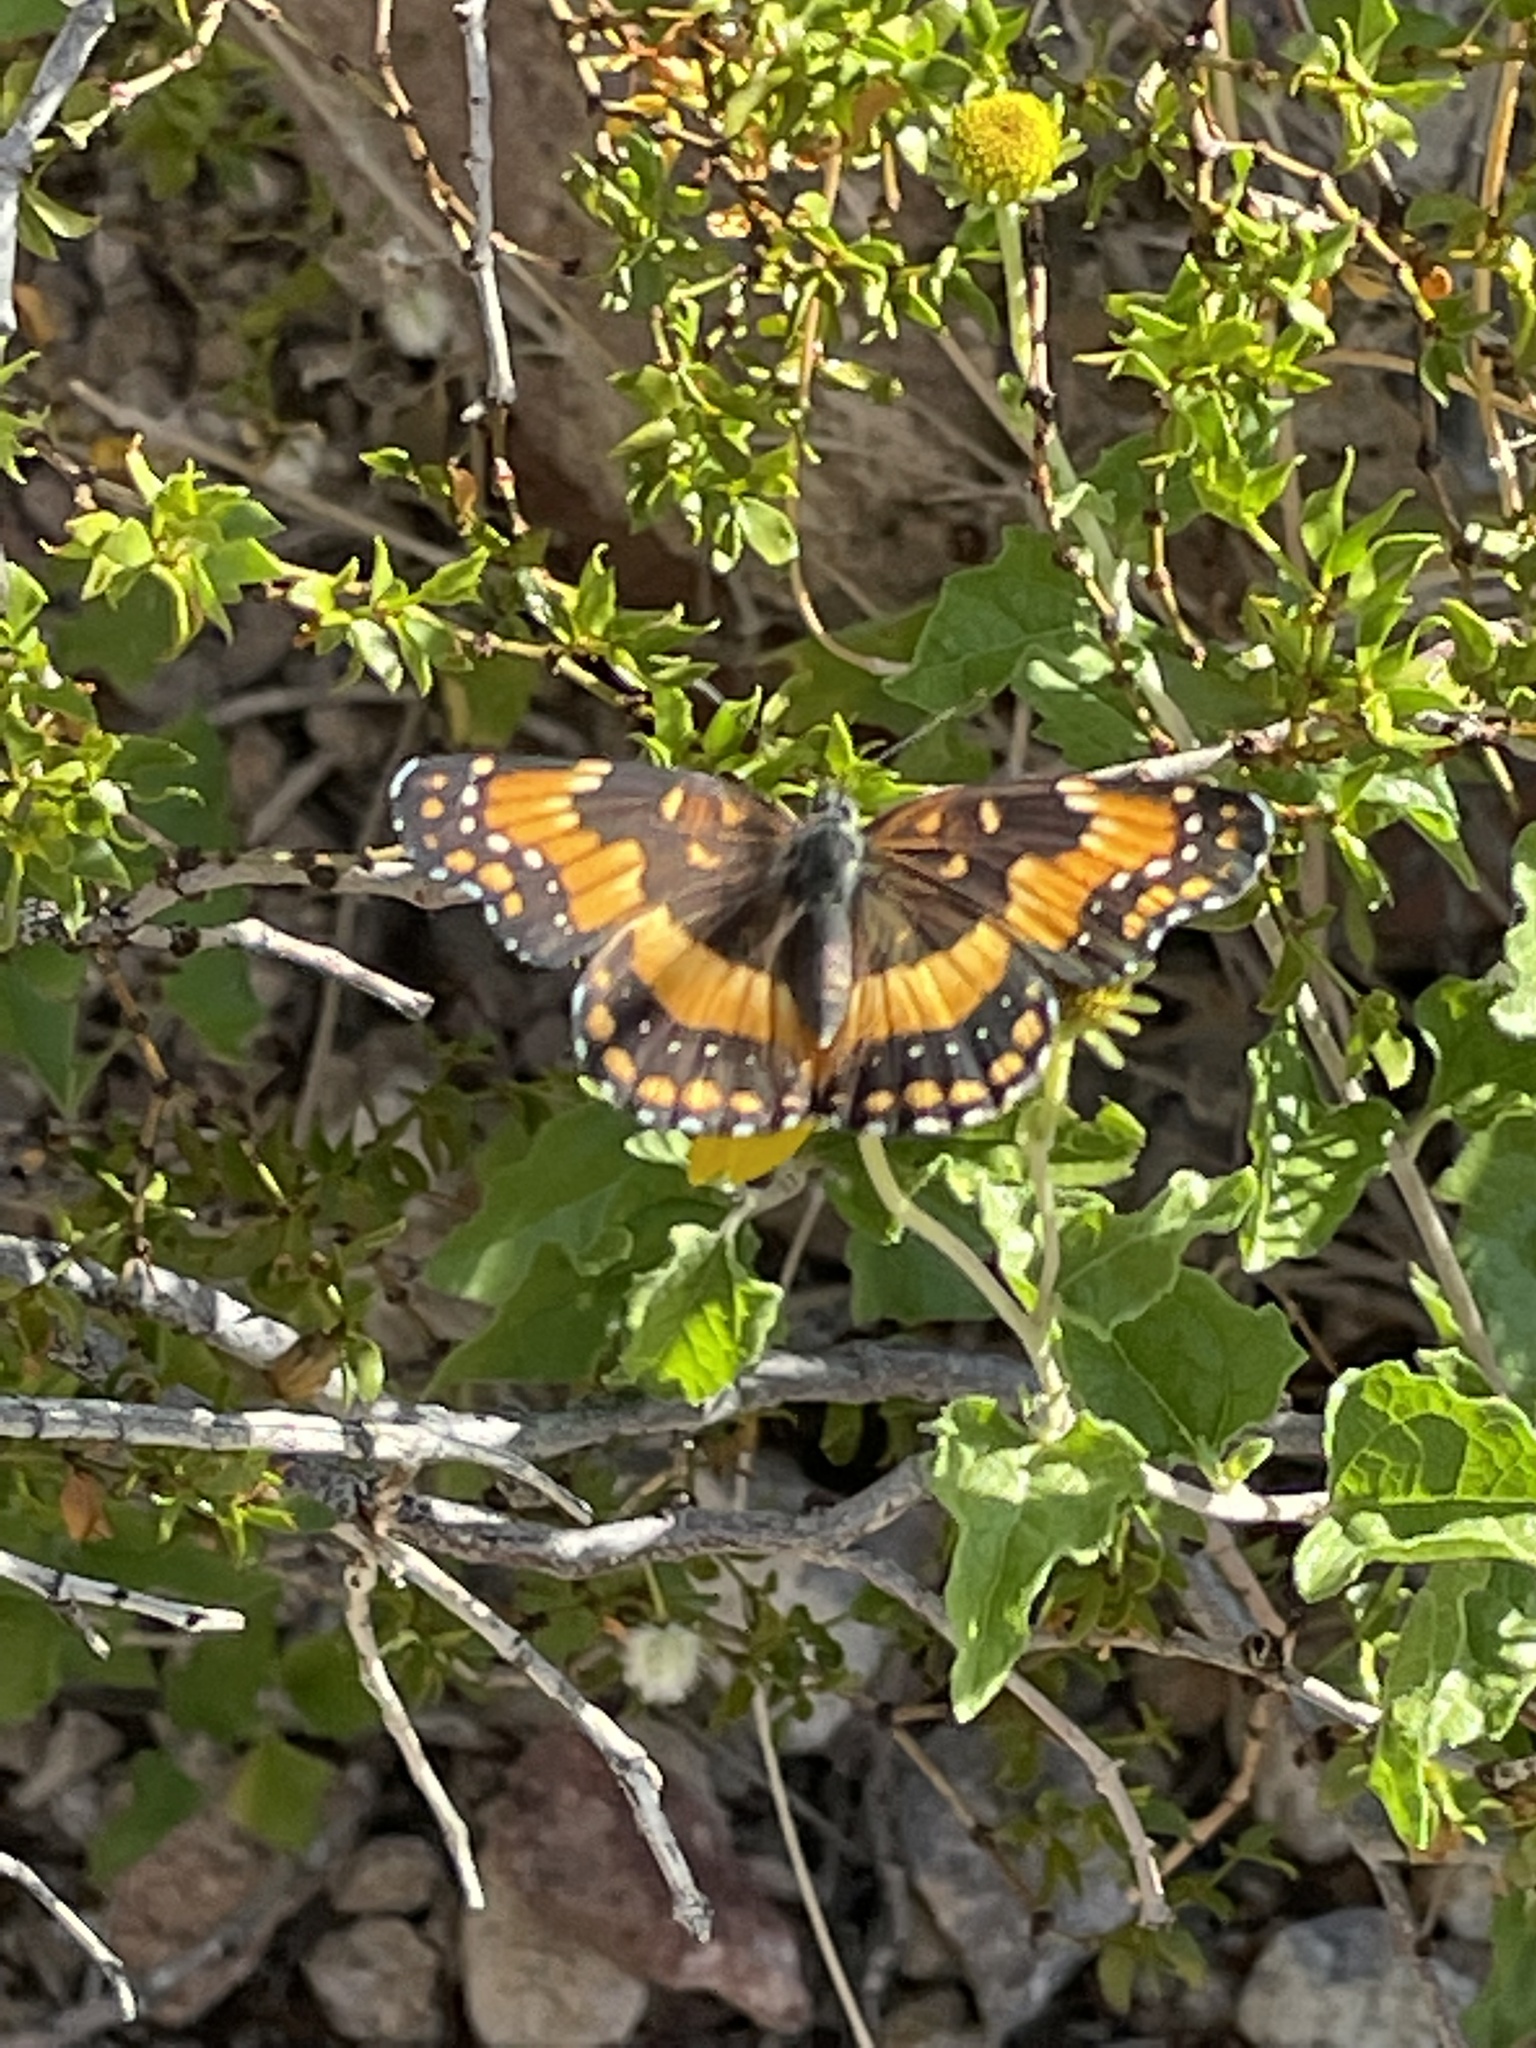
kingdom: Animalia
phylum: Arthropoda
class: Insecta
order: Lepidoptera
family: Nymphalidae
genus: Chlosyne
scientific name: Chlosyne californica
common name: California patch
